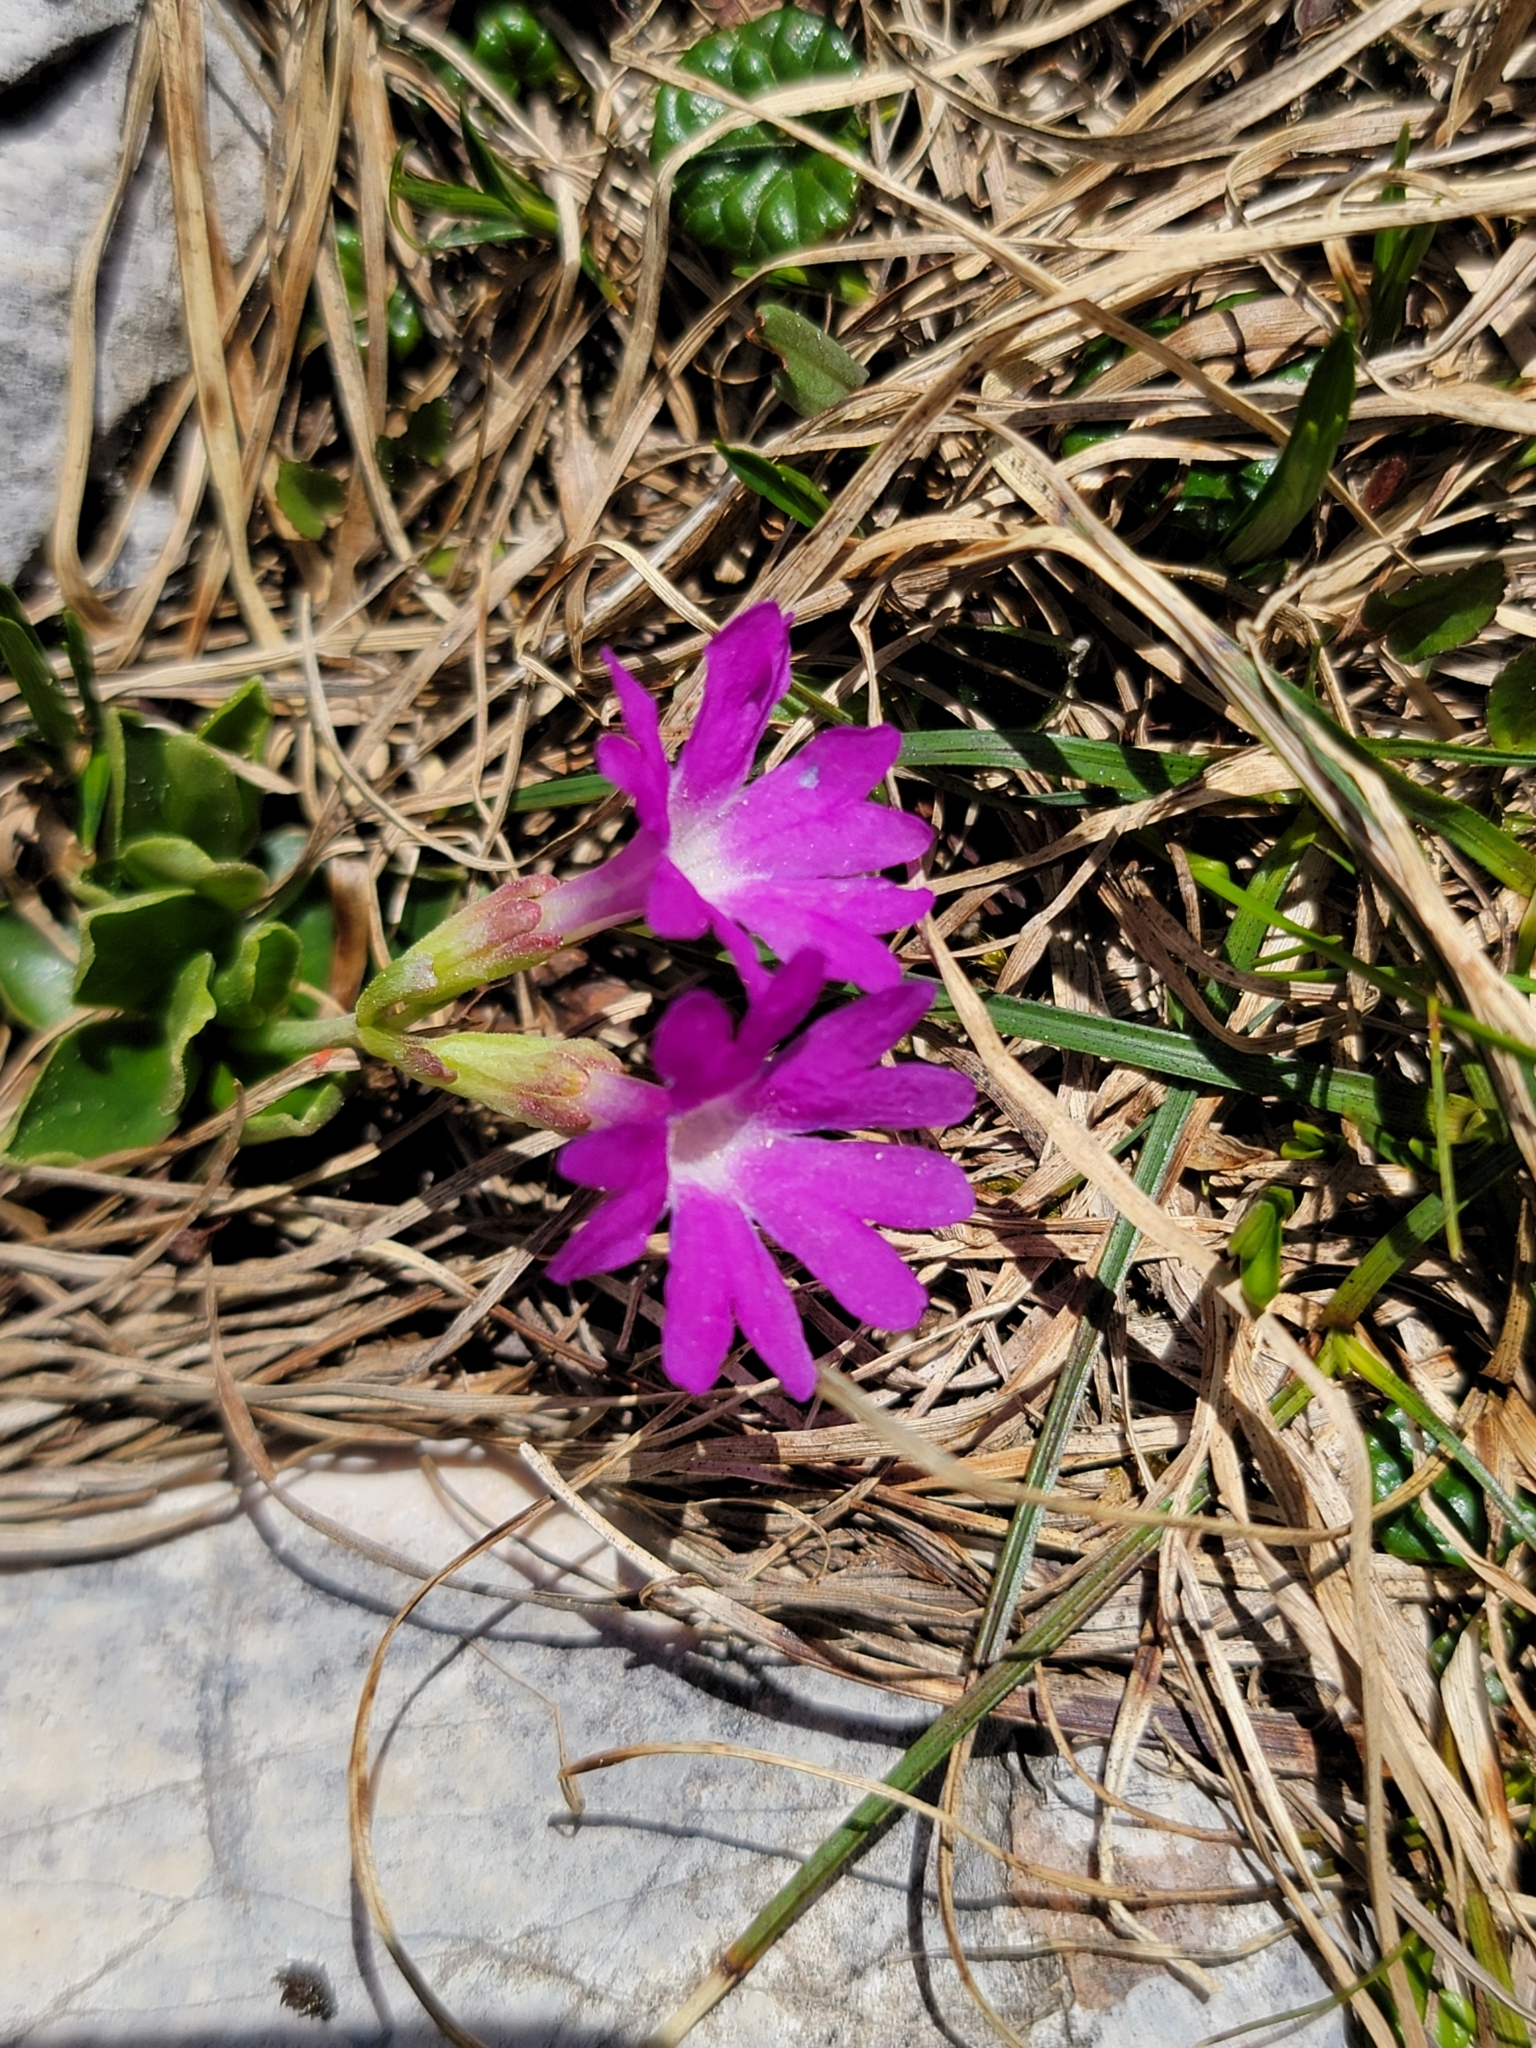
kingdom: Plantae
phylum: Tracheophyta
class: Magnoliopsida
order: Ericales
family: Primulaceae
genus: Primula
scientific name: Primula clusiana
